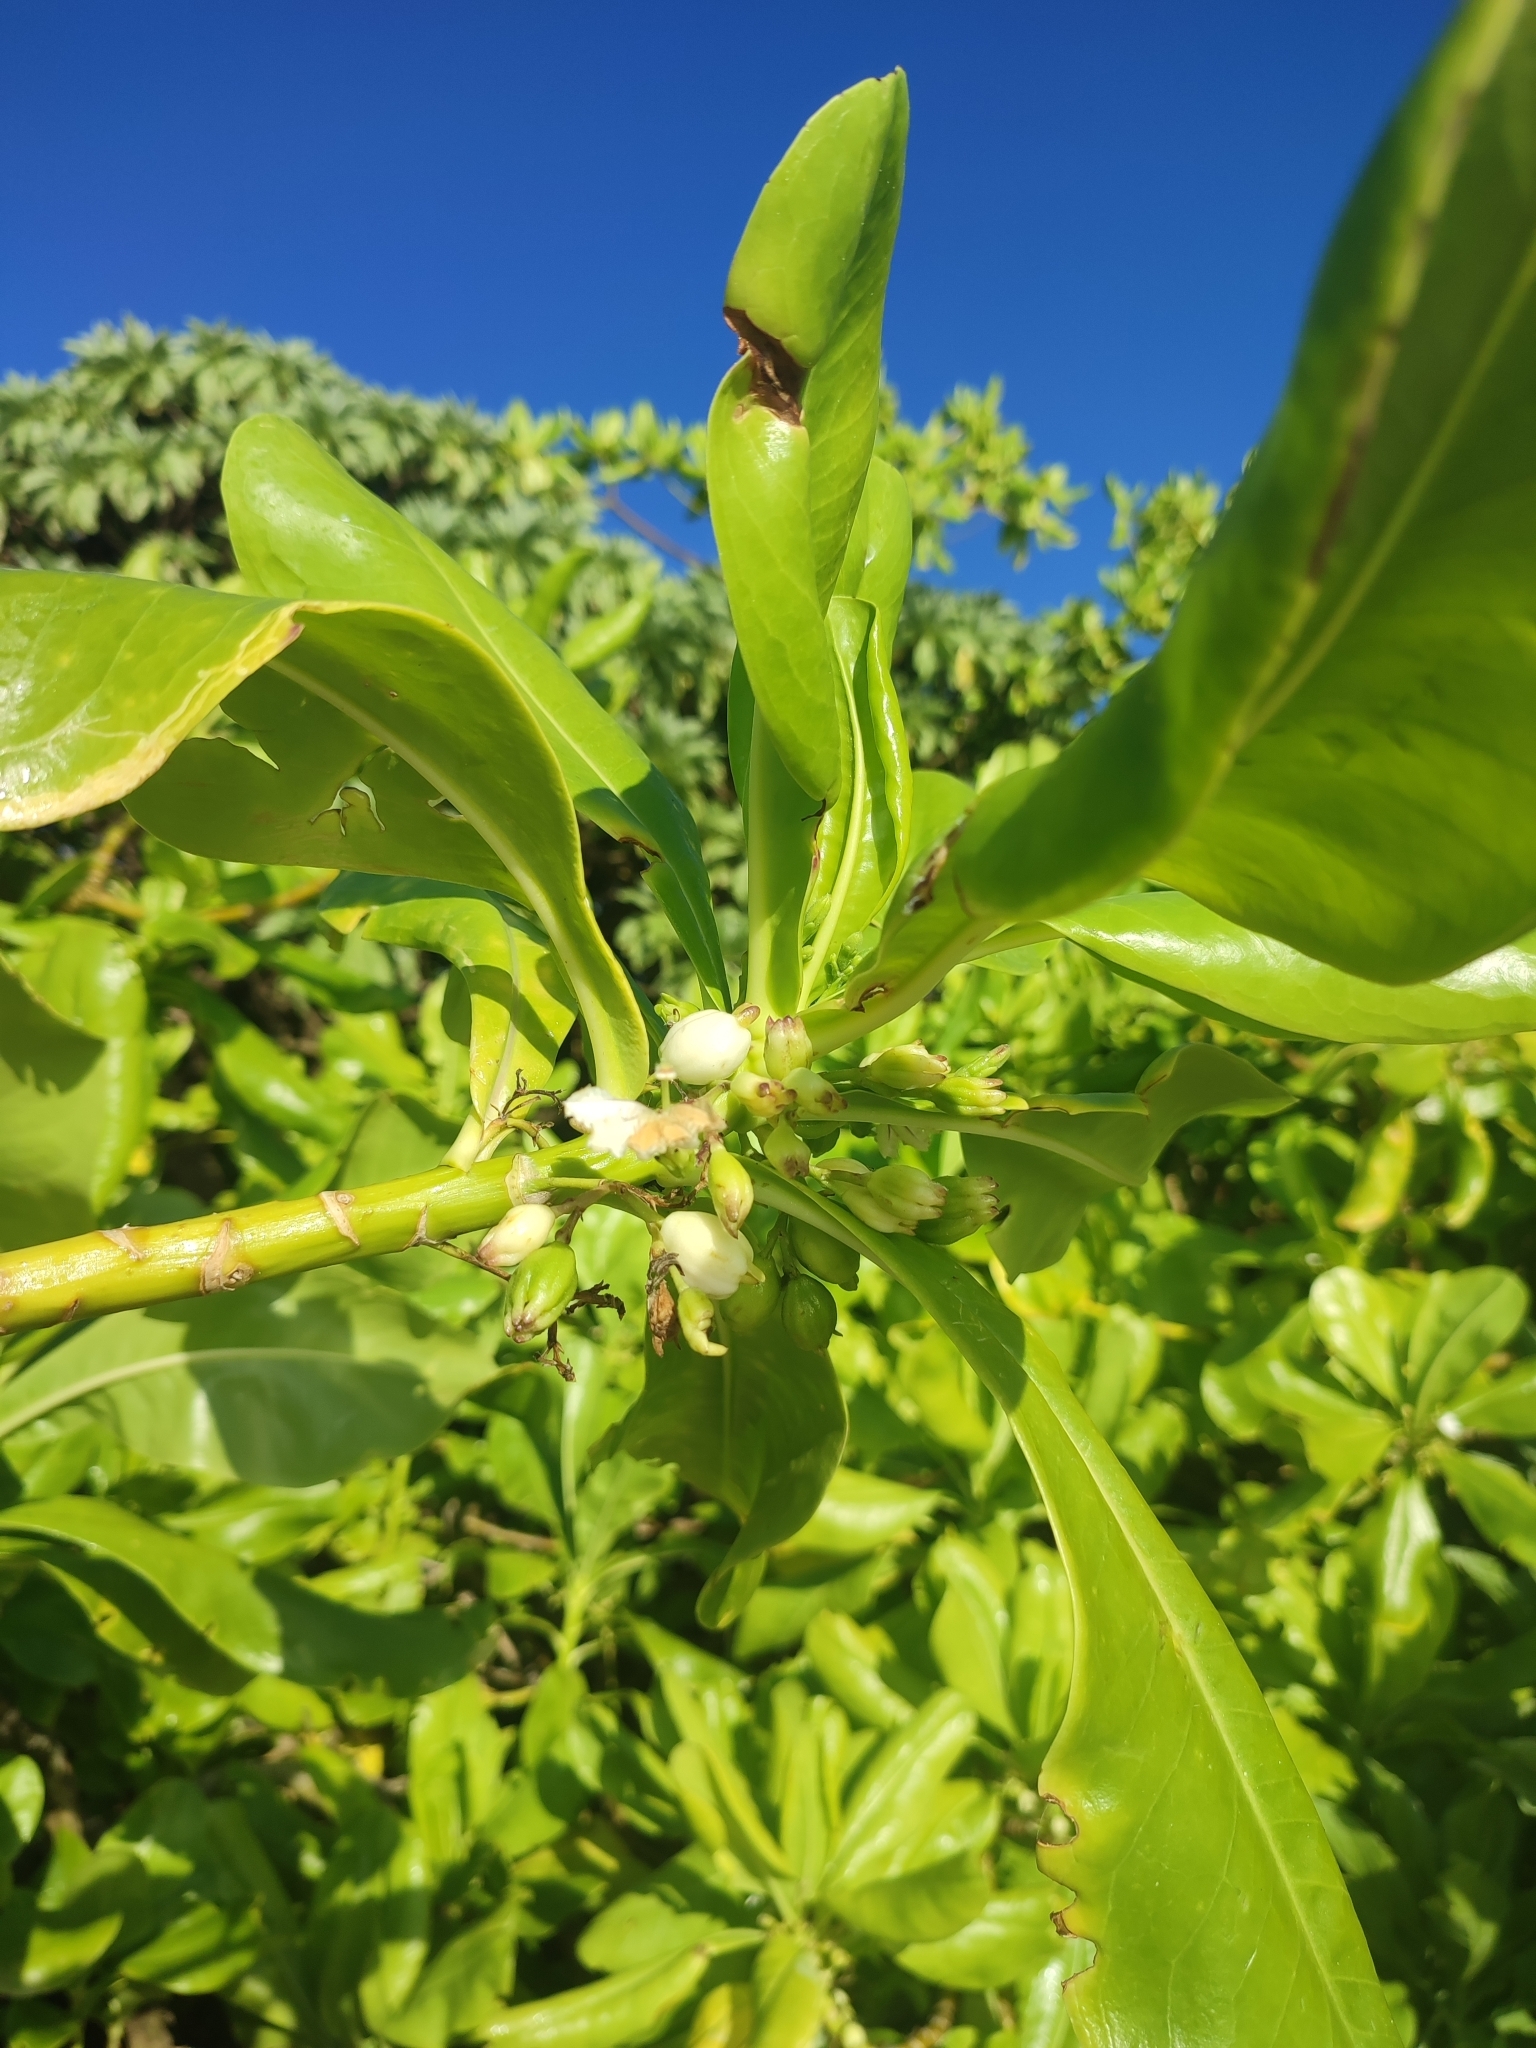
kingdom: Plantae
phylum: Tracheophyta
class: Magnoliopsida
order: Asterales
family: Goodeniaceae
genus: Scaevola
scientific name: Scaevola taccada
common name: Sea lettucetree
